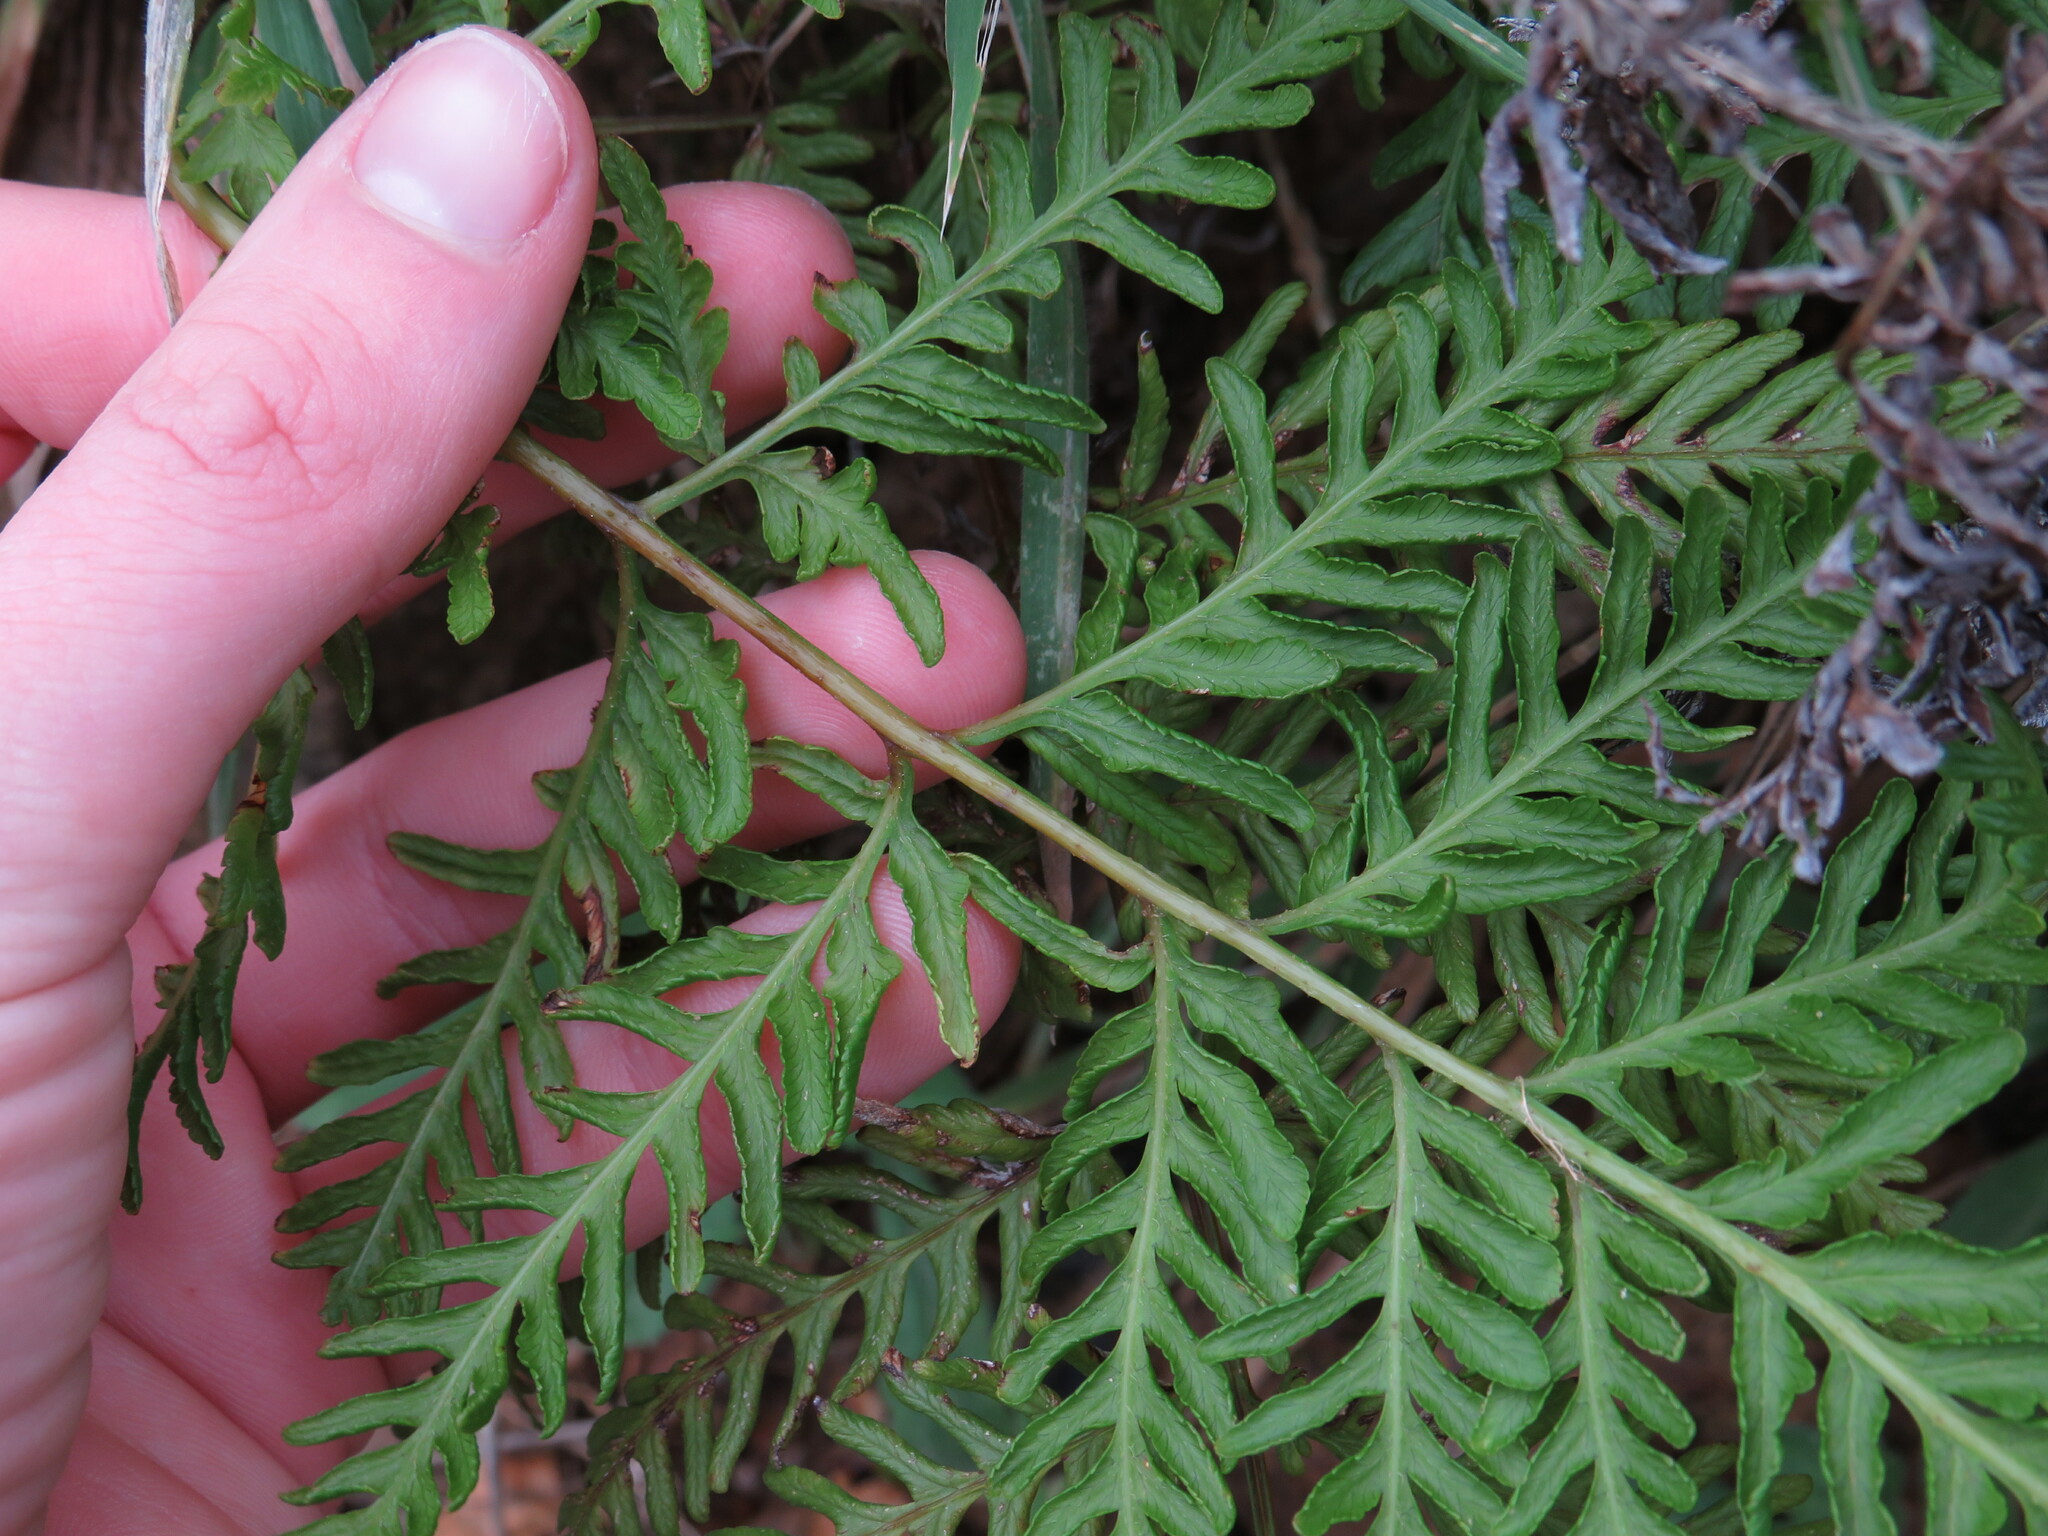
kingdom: Plantae
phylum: Tracheophyta
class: Polypodiopsida
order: Polypodiales
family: Pteridaceae
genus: Pteris
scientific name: Pteris tremula
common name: Australian brake
